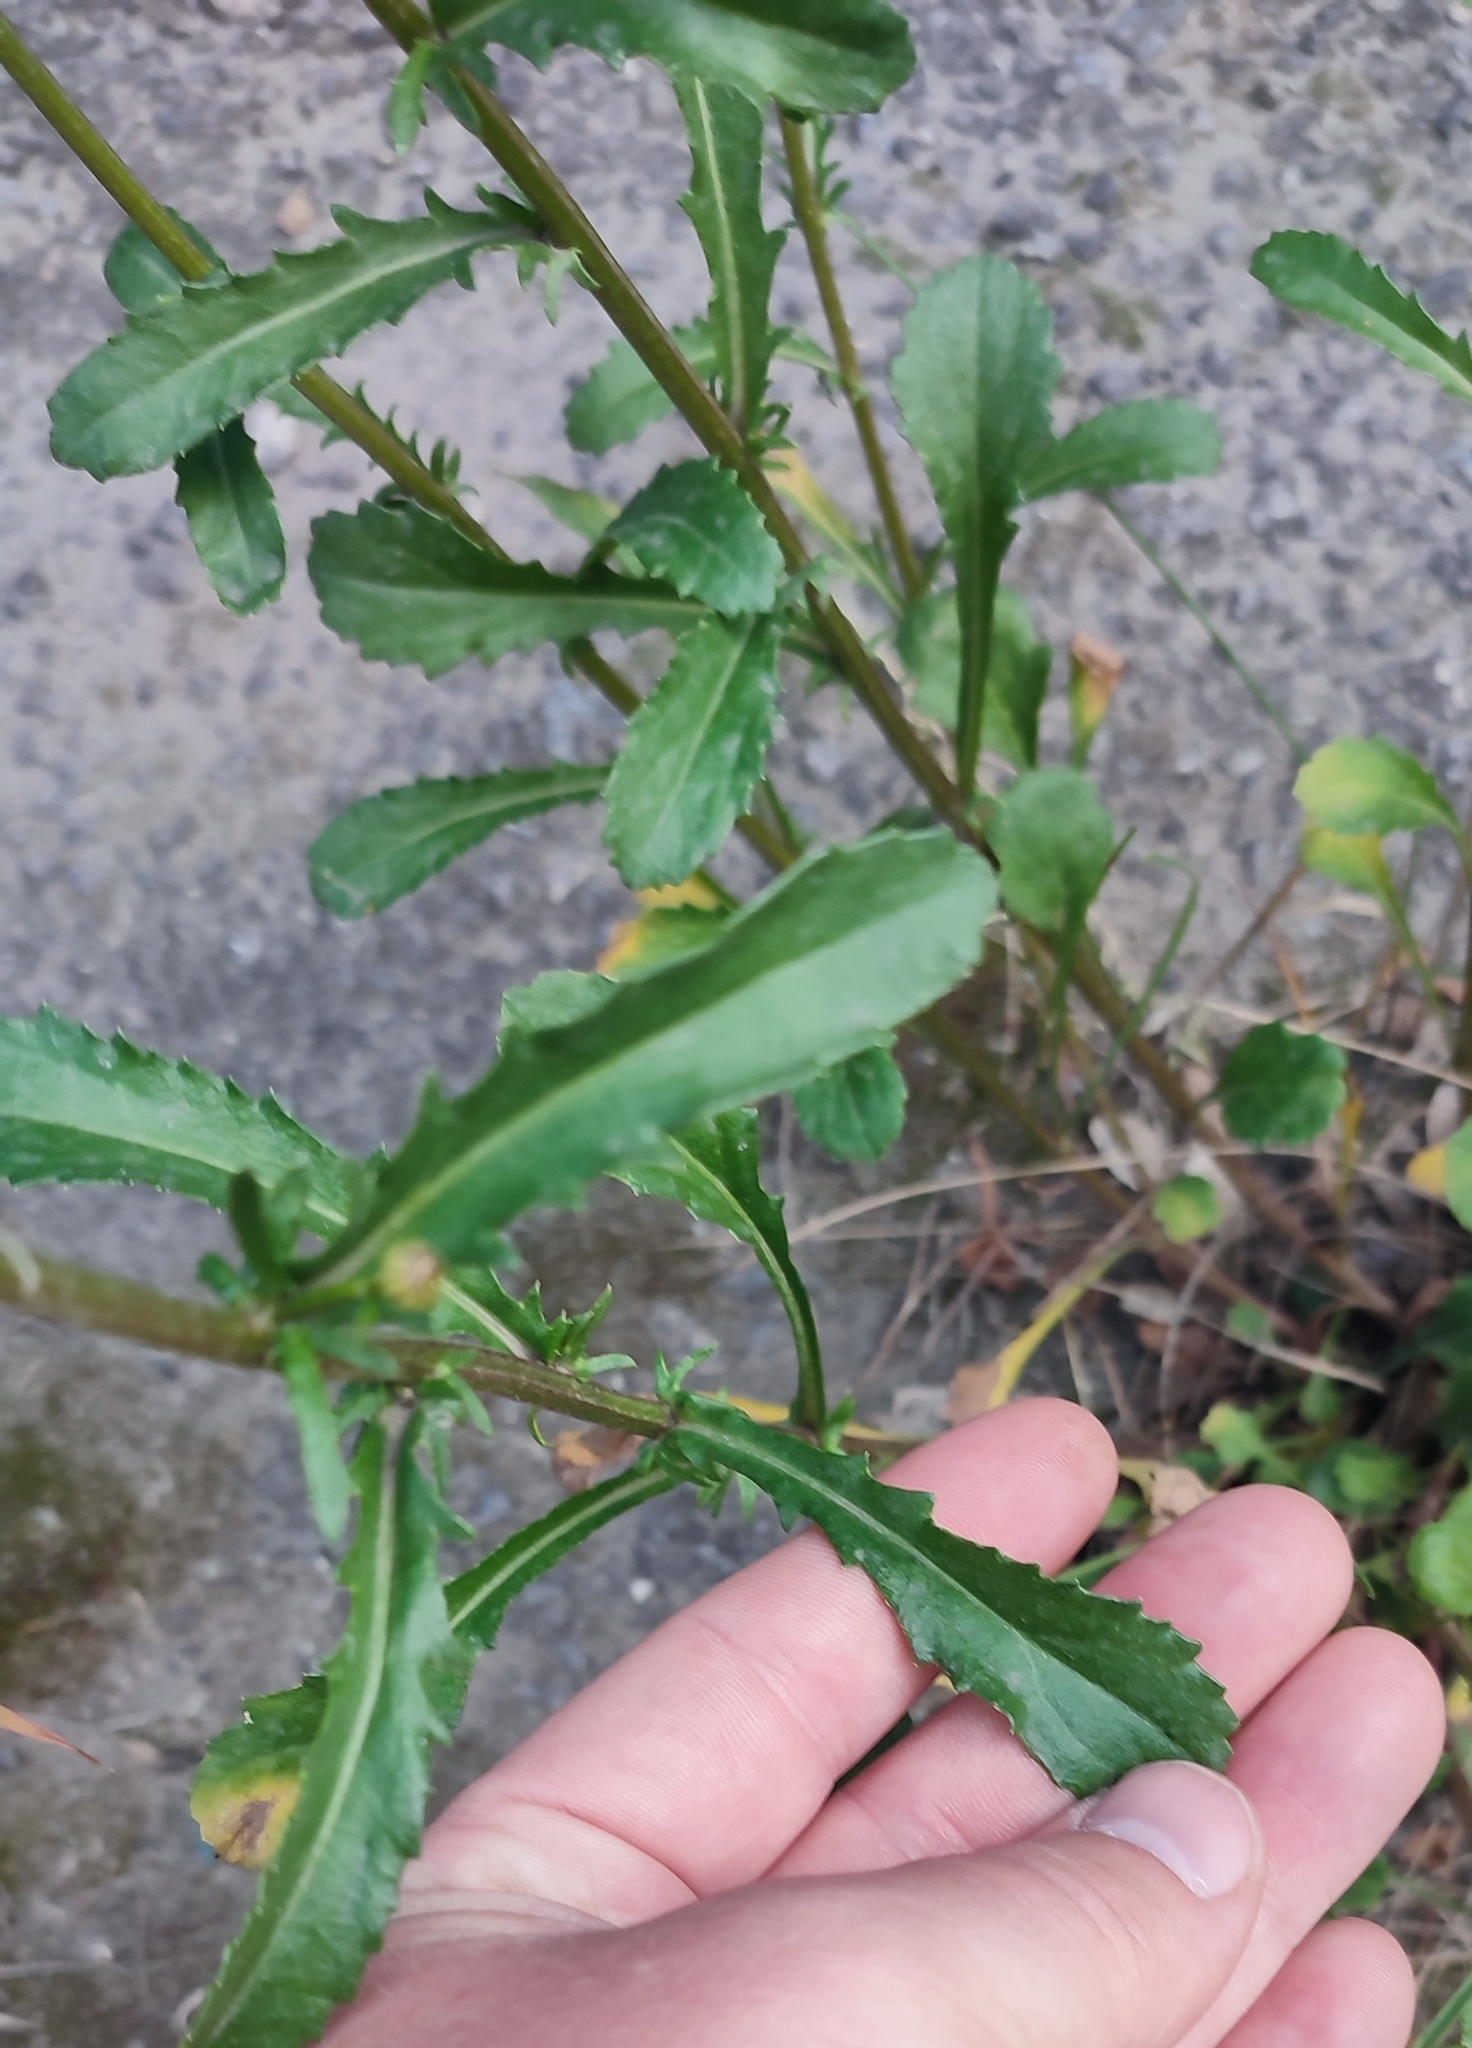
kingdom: Plantae
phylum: Tracheophyta
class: Magnoliopsida
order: Asterales
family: Asteraceae
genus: Leucanthemum
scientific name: Leucanthemum ircutianum
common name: Daisy
